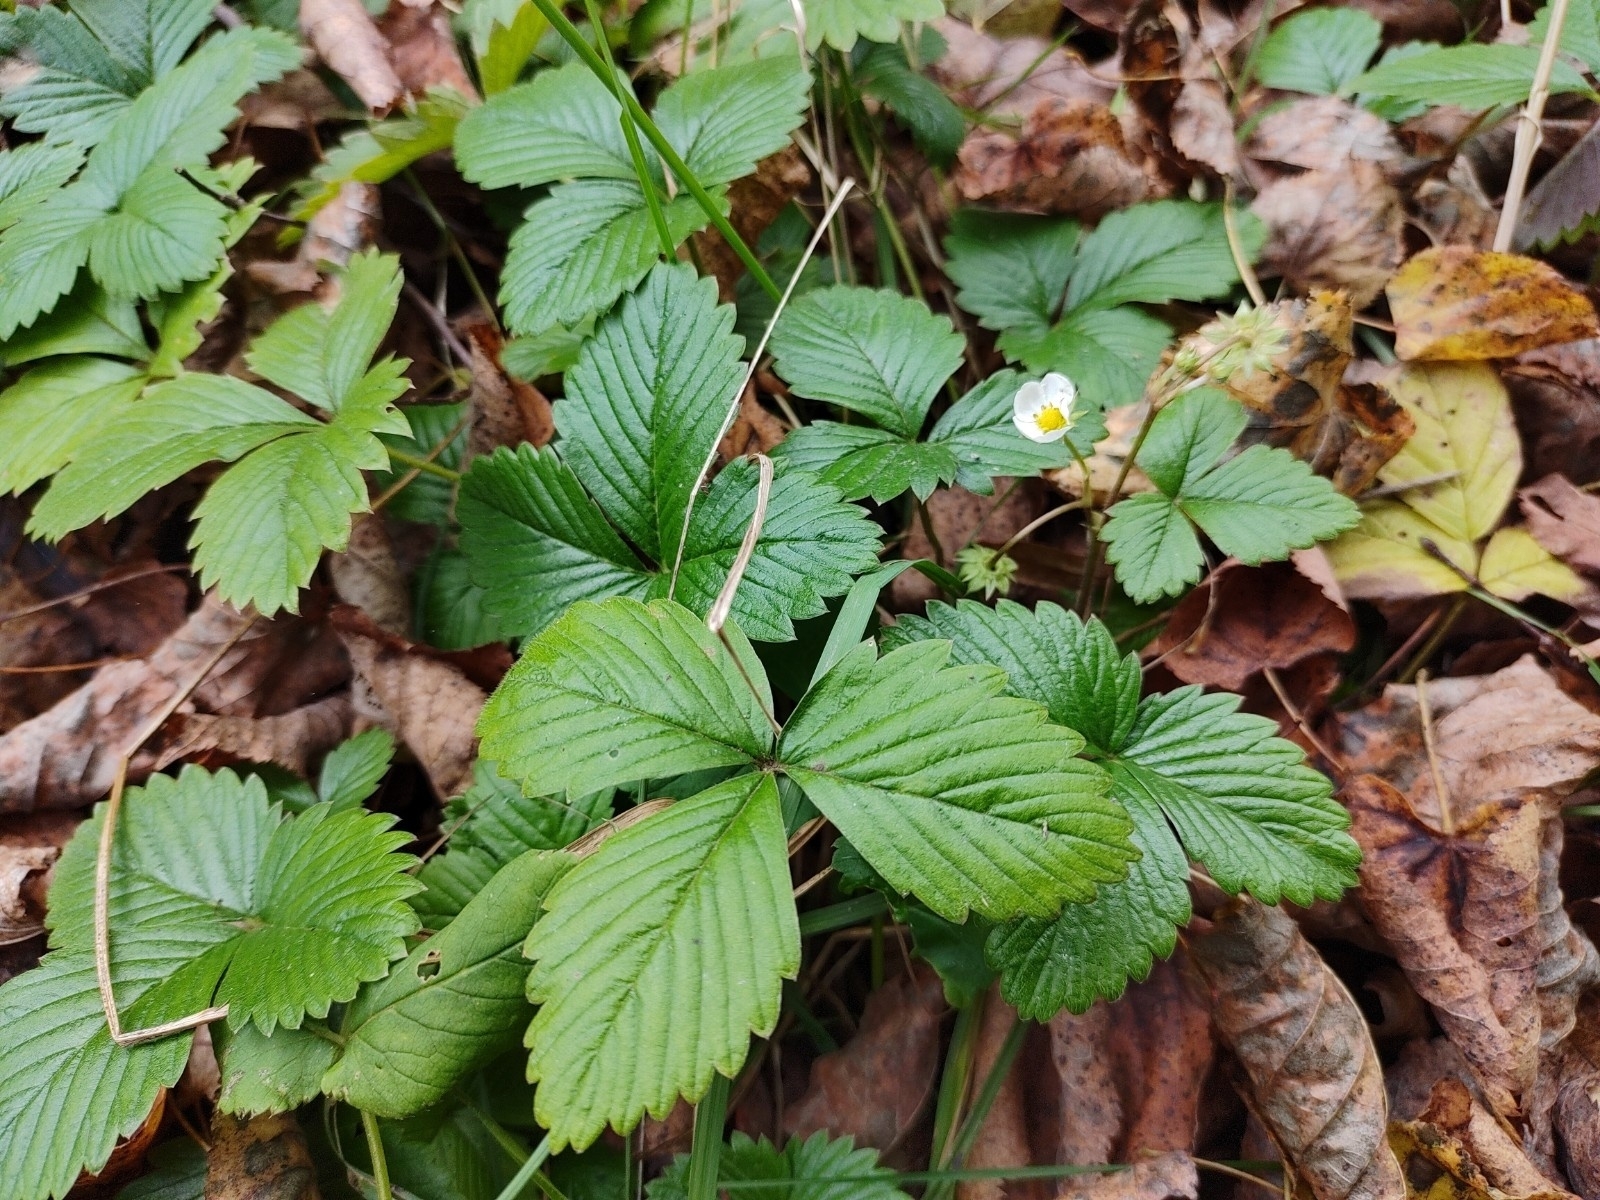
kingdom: Plantae
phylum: Tracheophyta
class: Magnoliopsida
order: Rosales
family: Rosaceae
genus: Fragaria
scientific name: Fragaria vesca
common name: Wild strawberry
